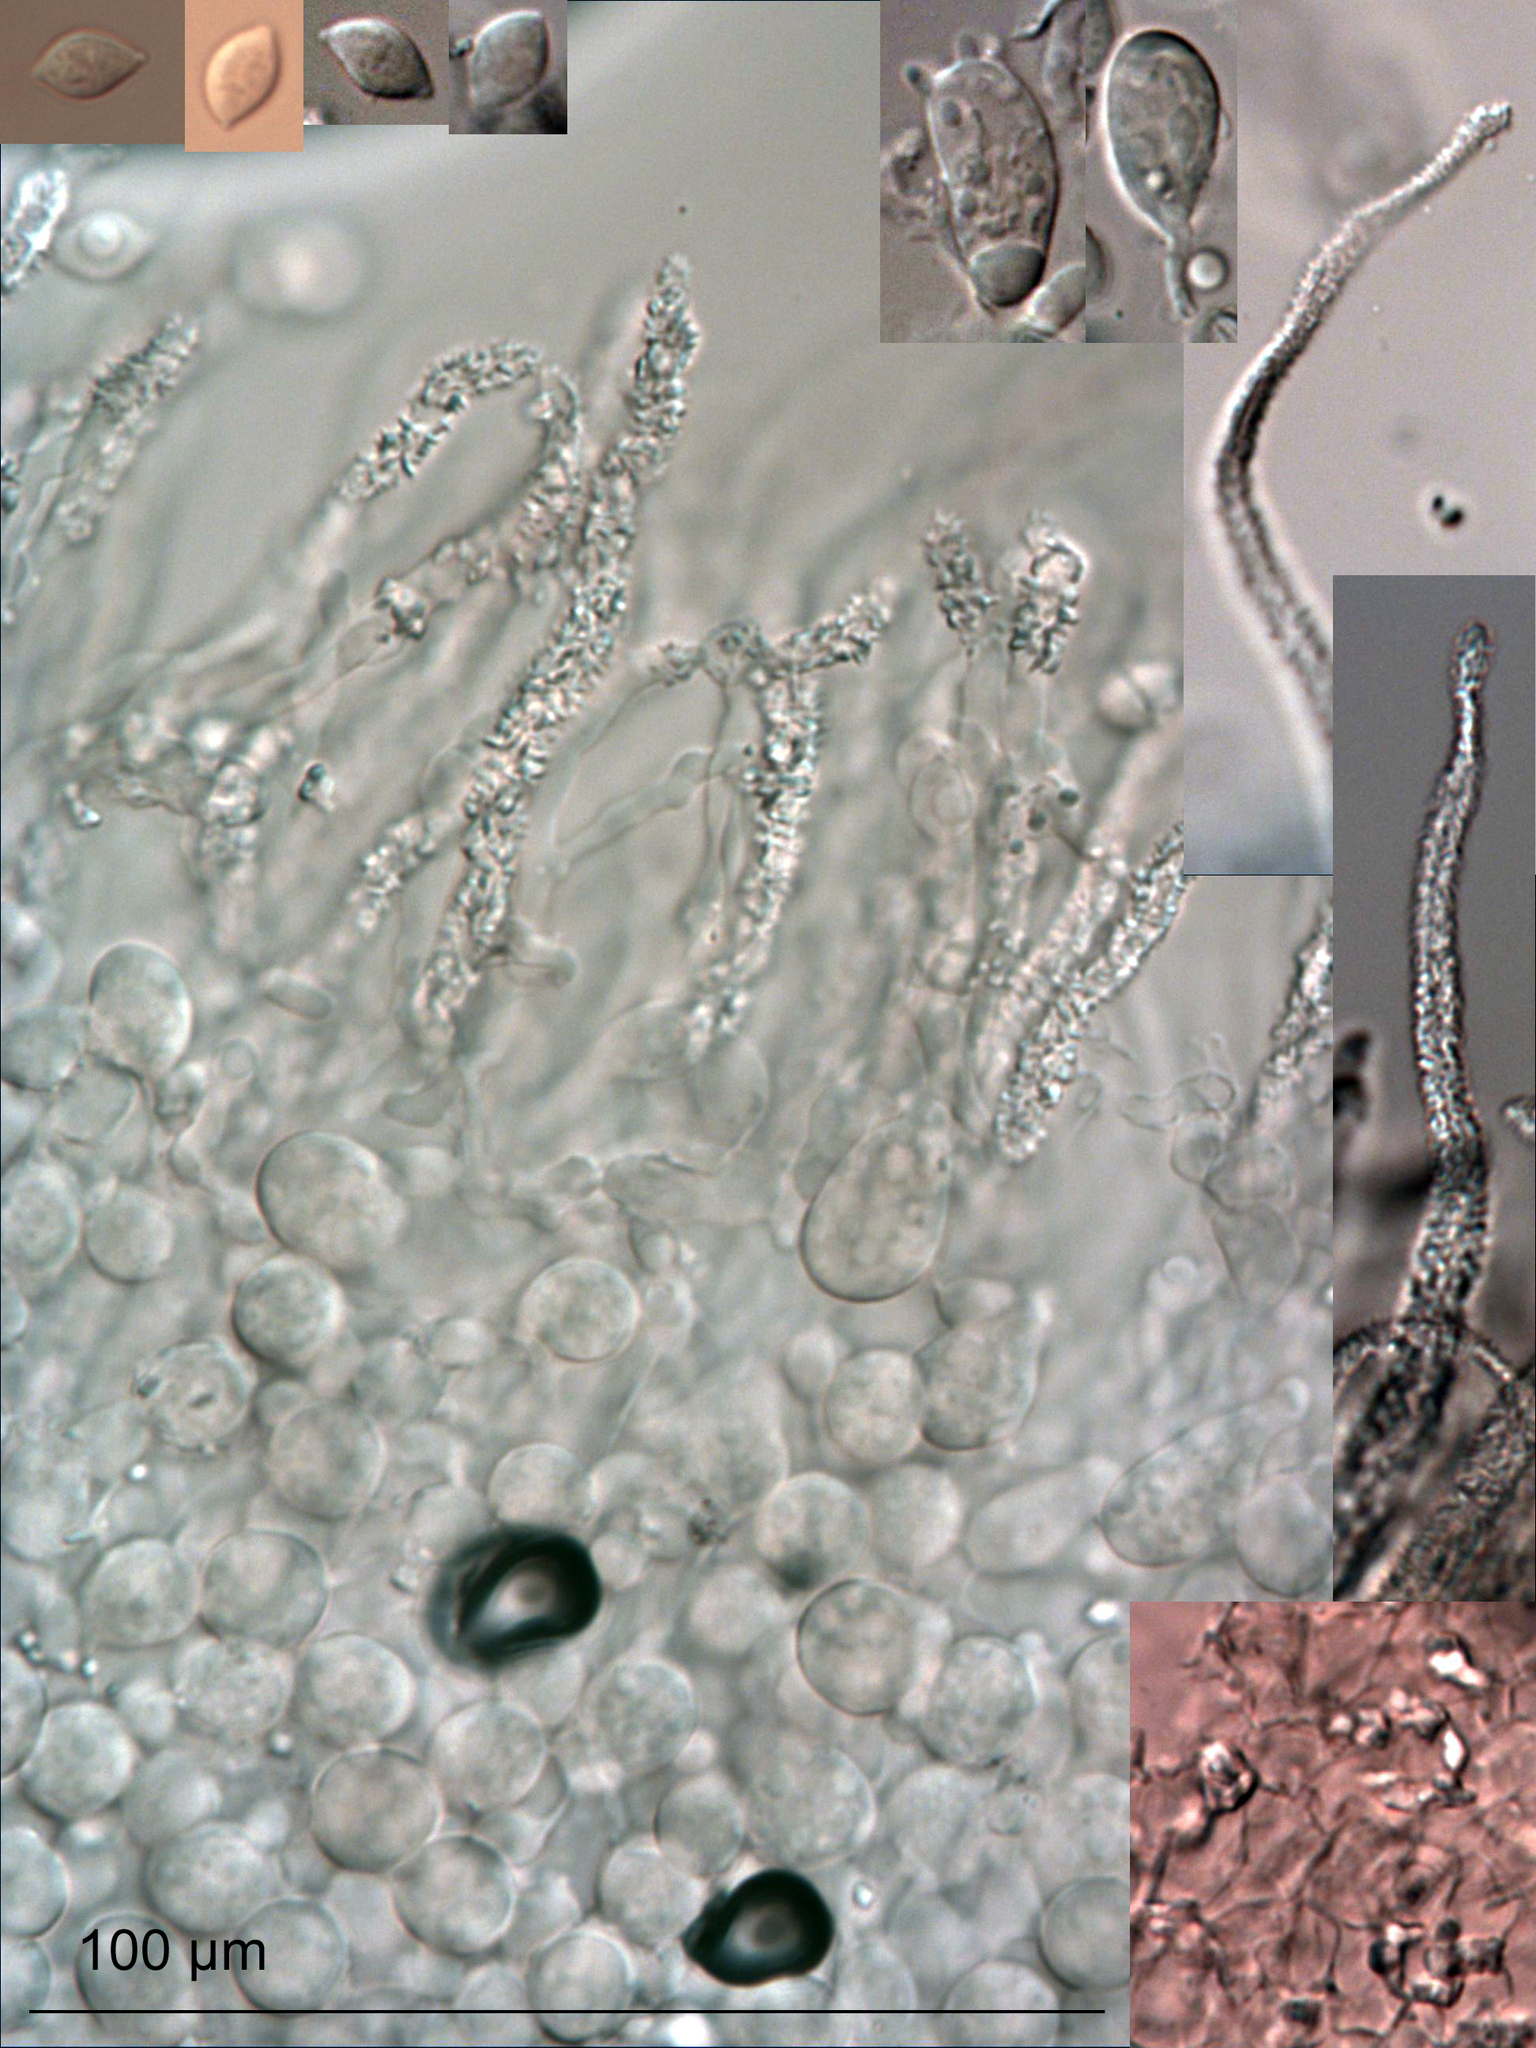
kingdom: Fungi
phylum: Basidiomycota
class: Agaricomycetes
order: Agaricales
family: Niaceae
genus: Flagelloscypha
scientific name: Flagelloscypha austrofilicis
